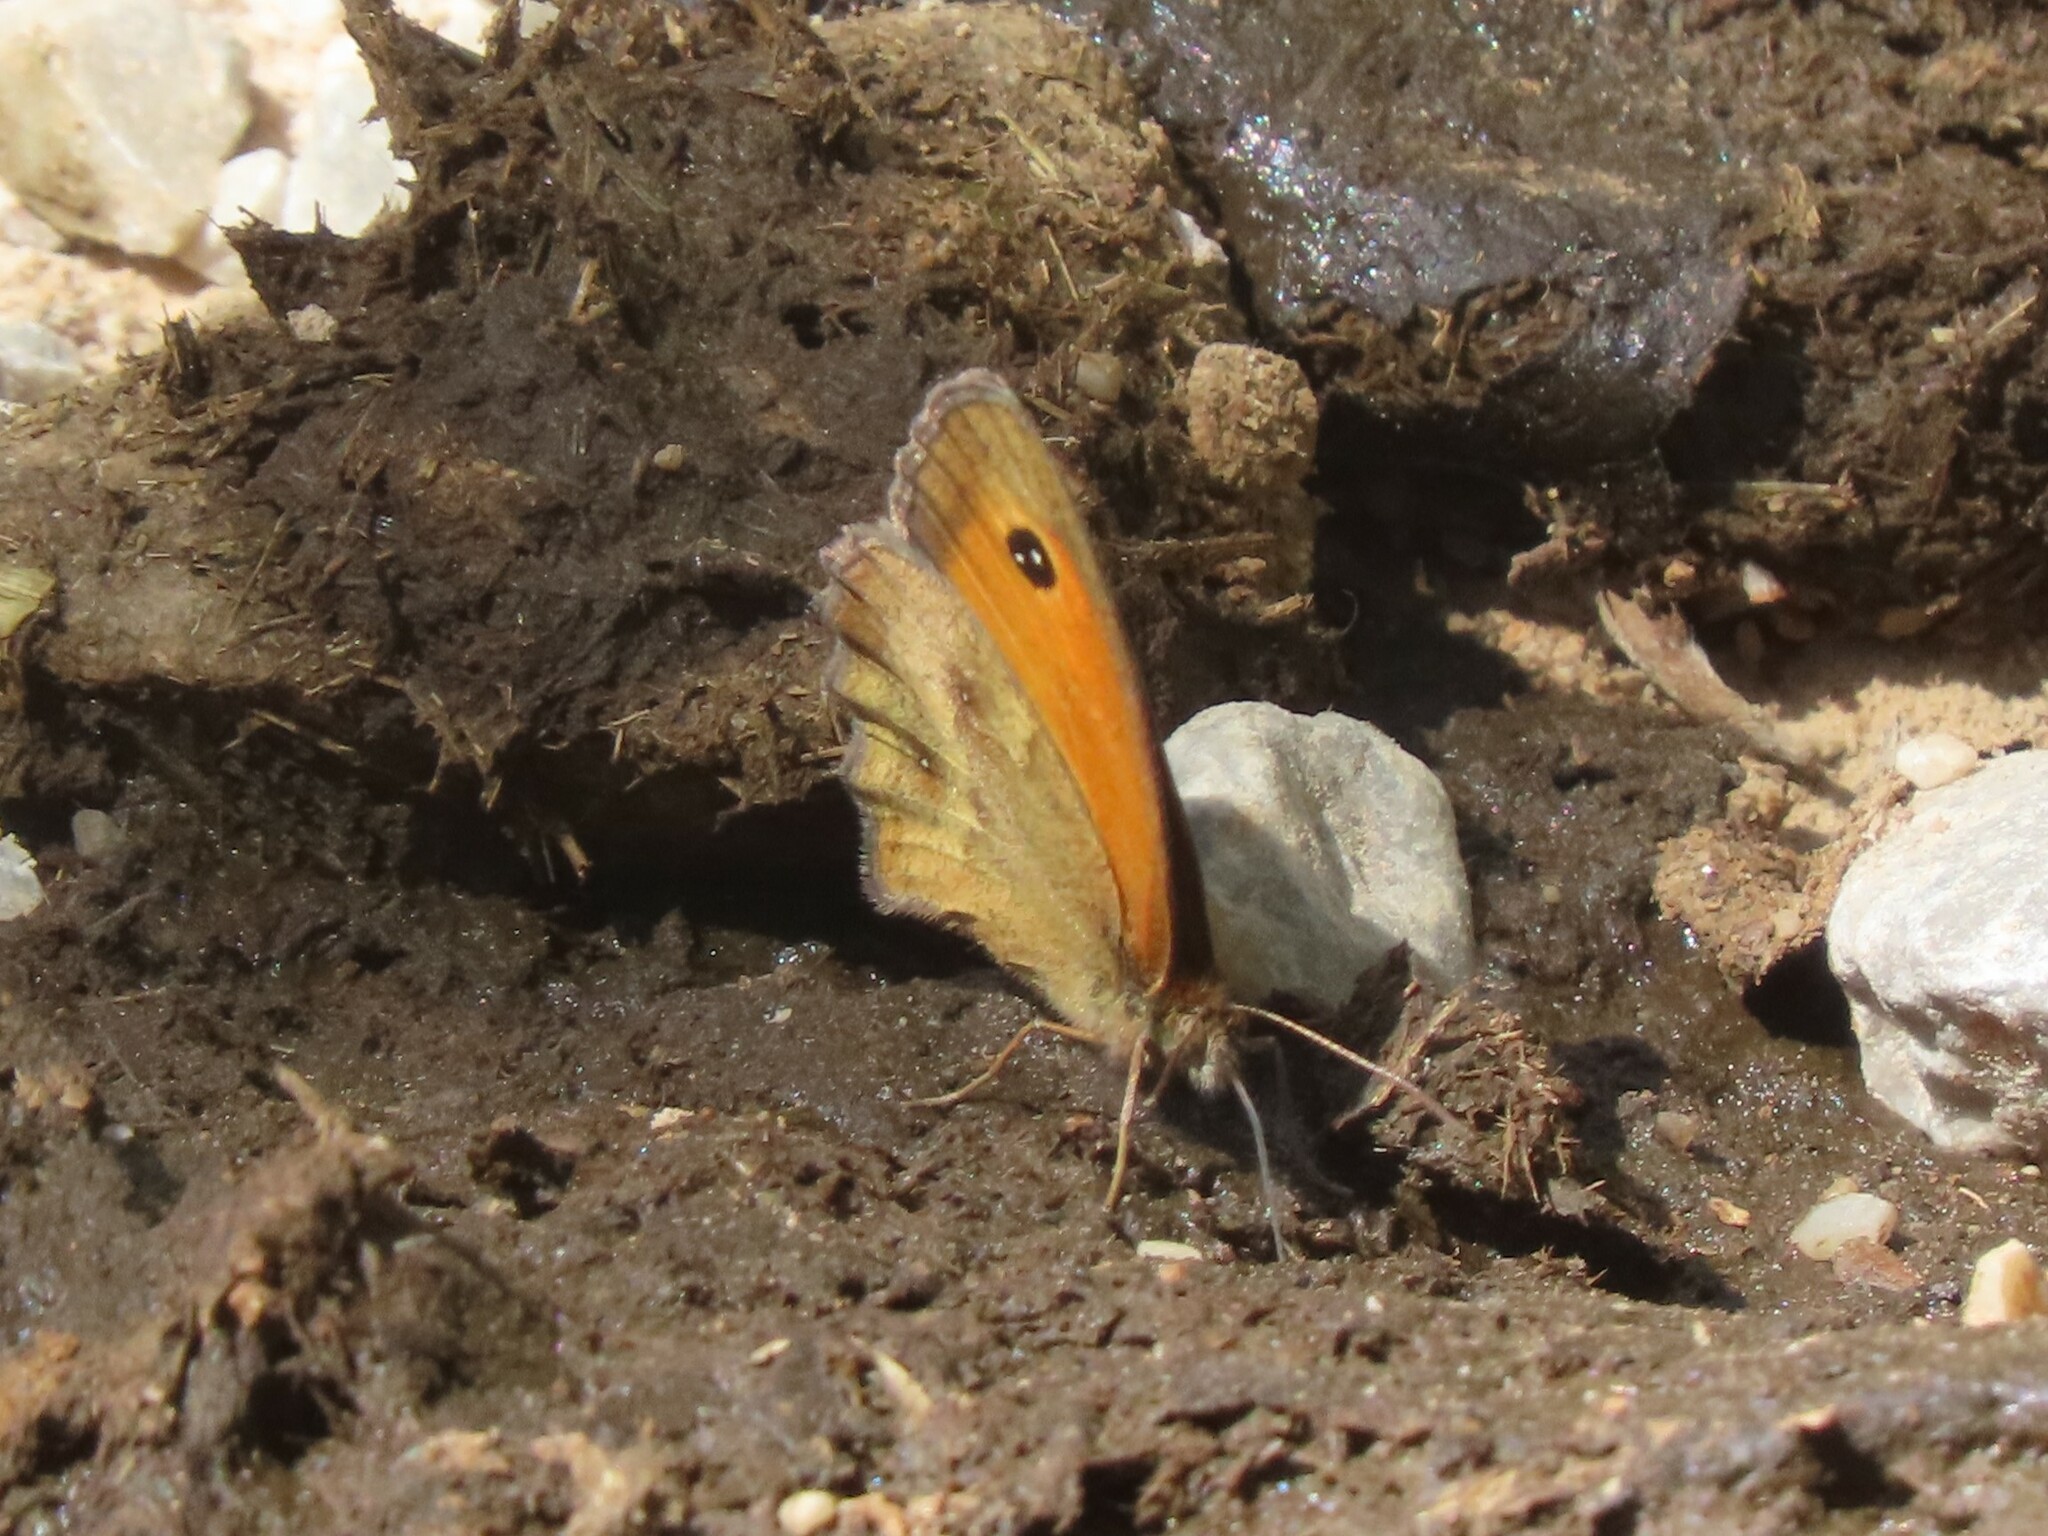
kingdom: Animalia
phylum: Arthropoda
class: Insecta
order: Lepidoptera
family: Nymphalidae
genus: Pyronia
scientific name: Pyronia tithonus
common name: Gatekeeper
